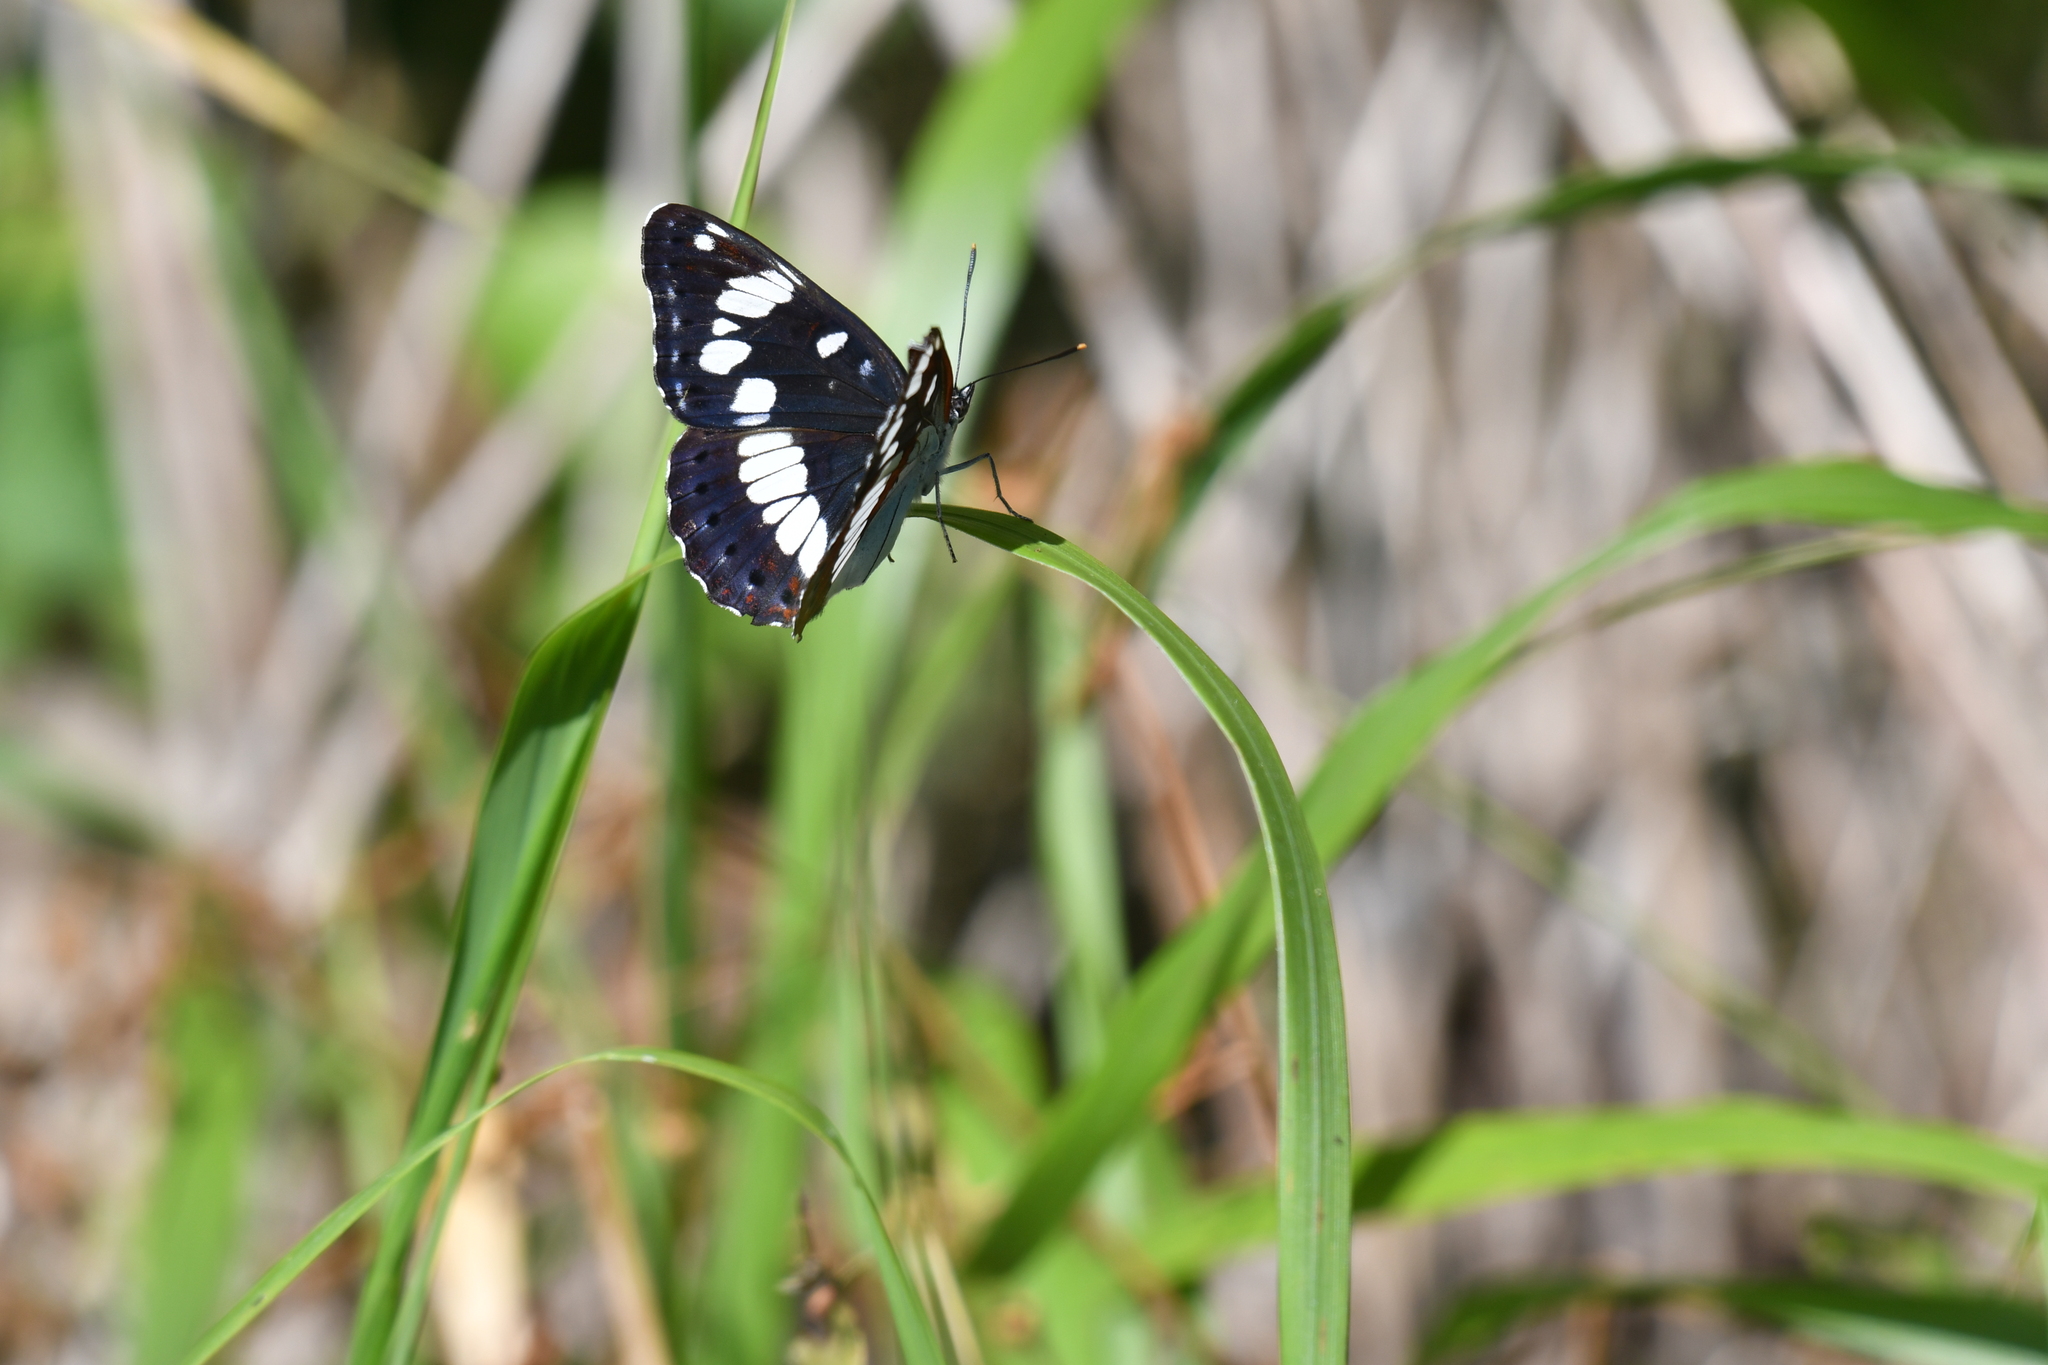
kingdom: Animalia
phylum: Arthropoda
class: Insecta
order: Lepidoptera
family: Nymphalidae
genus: Limenitis
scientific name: Limenitis reducta
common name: Southern white admiral
